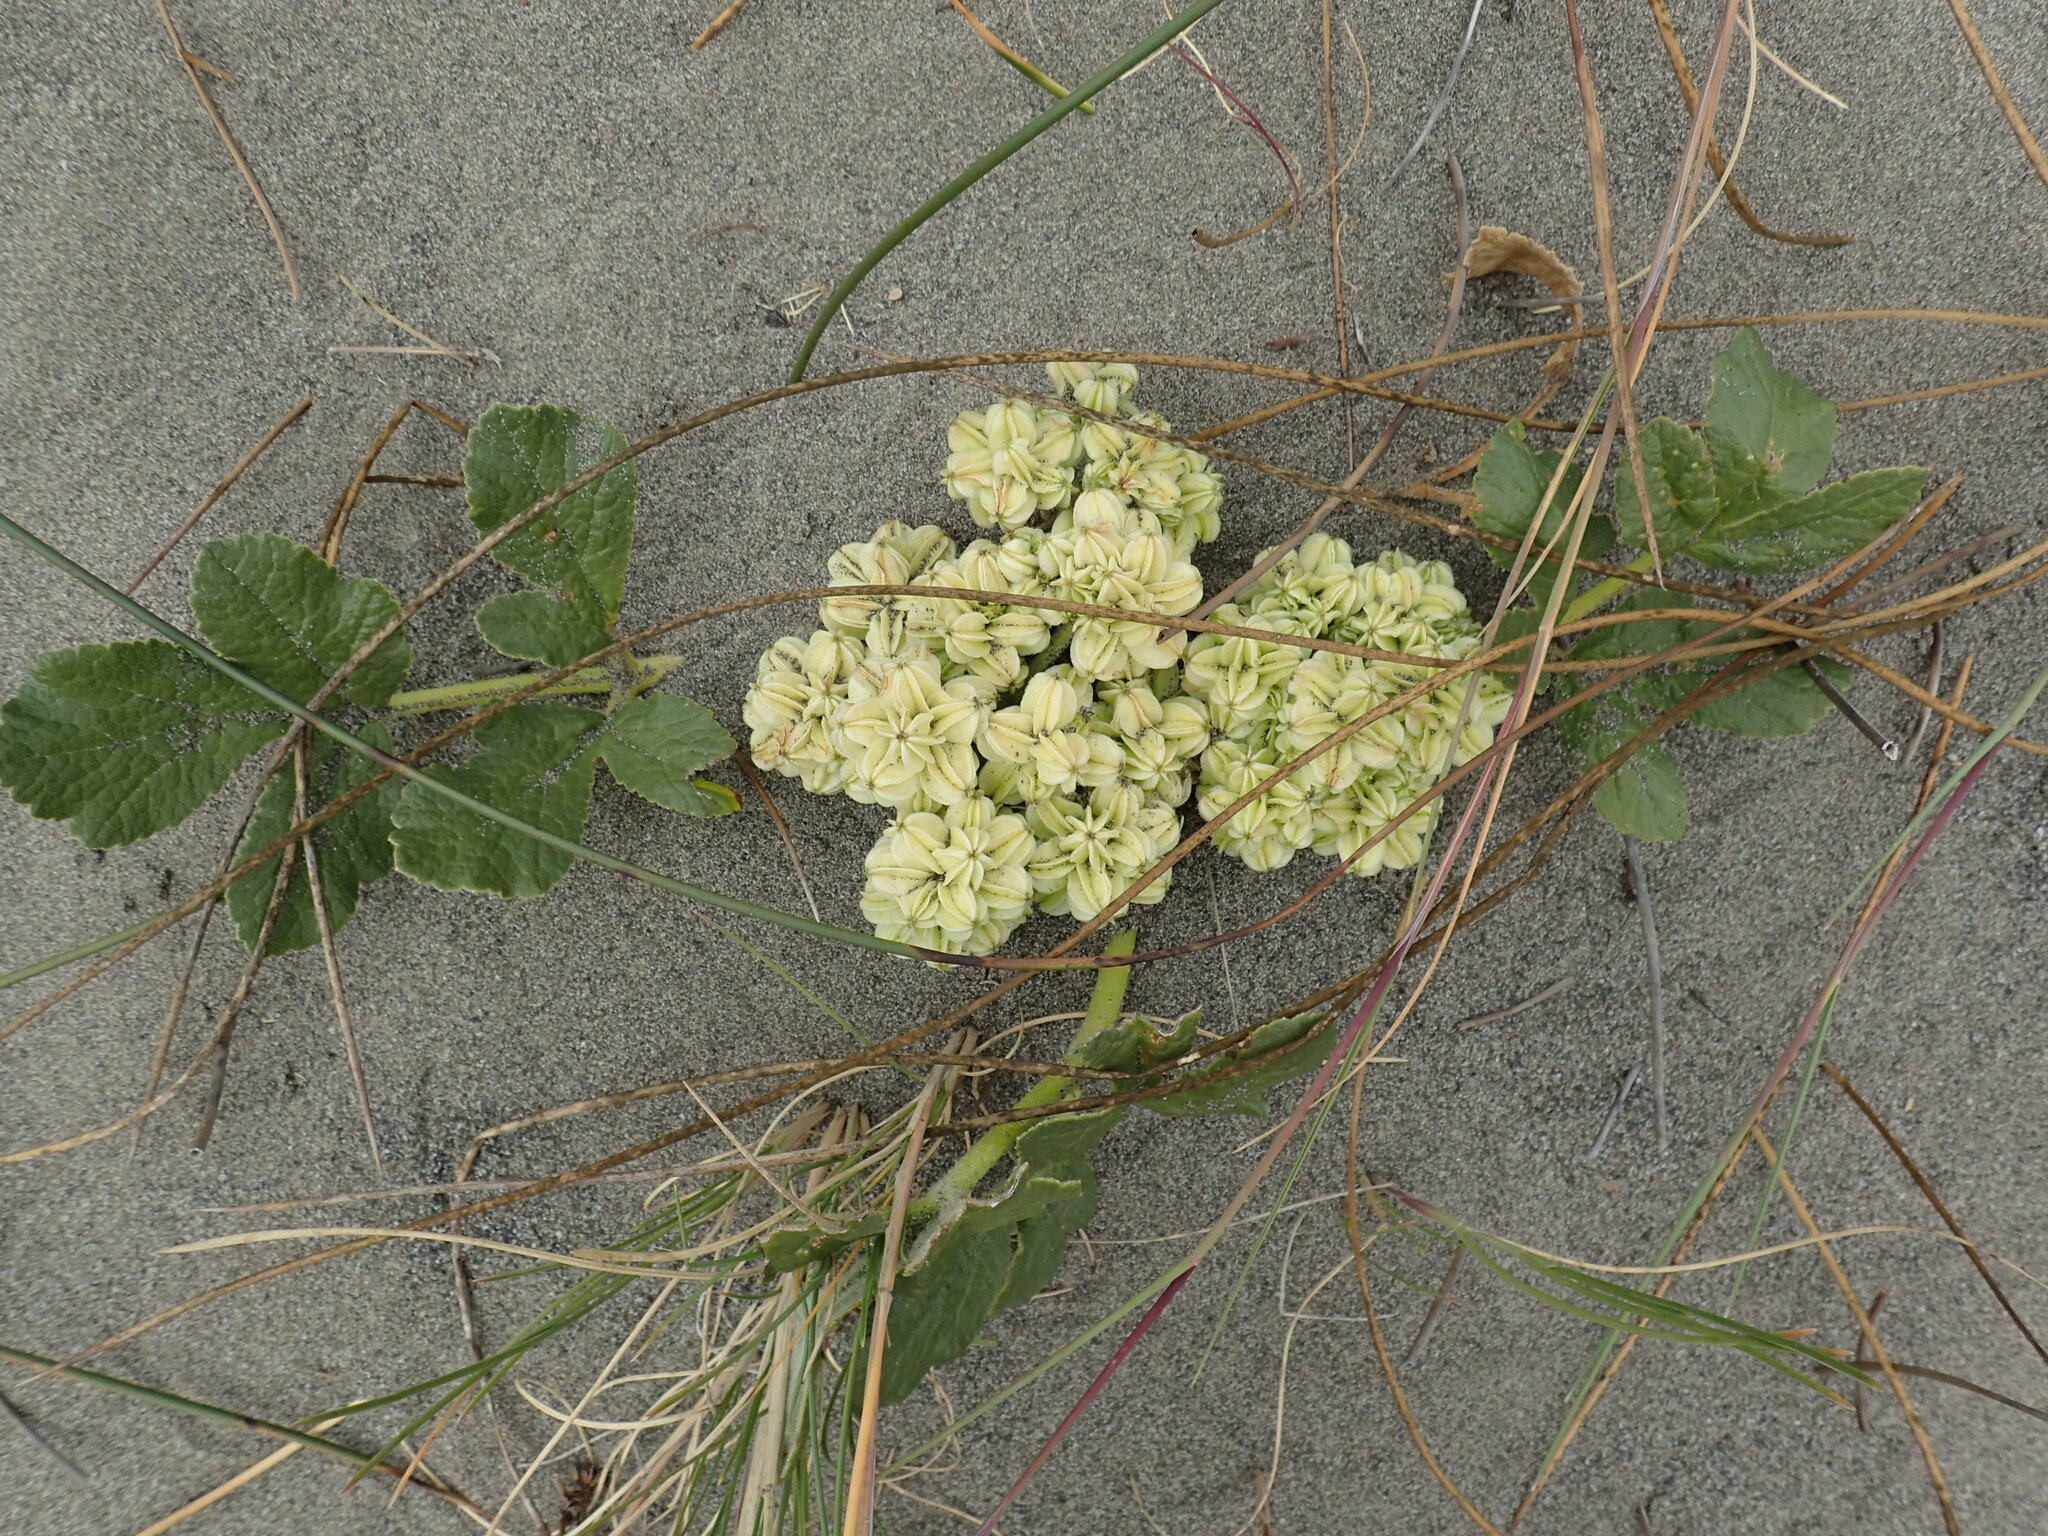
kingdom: Plantae
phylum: Tracheophyta
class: Magnoliopsida
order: Apiales
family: Apiaceae
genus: Glehnia
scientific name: Glehnia littoralis
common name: Beach silvertop
